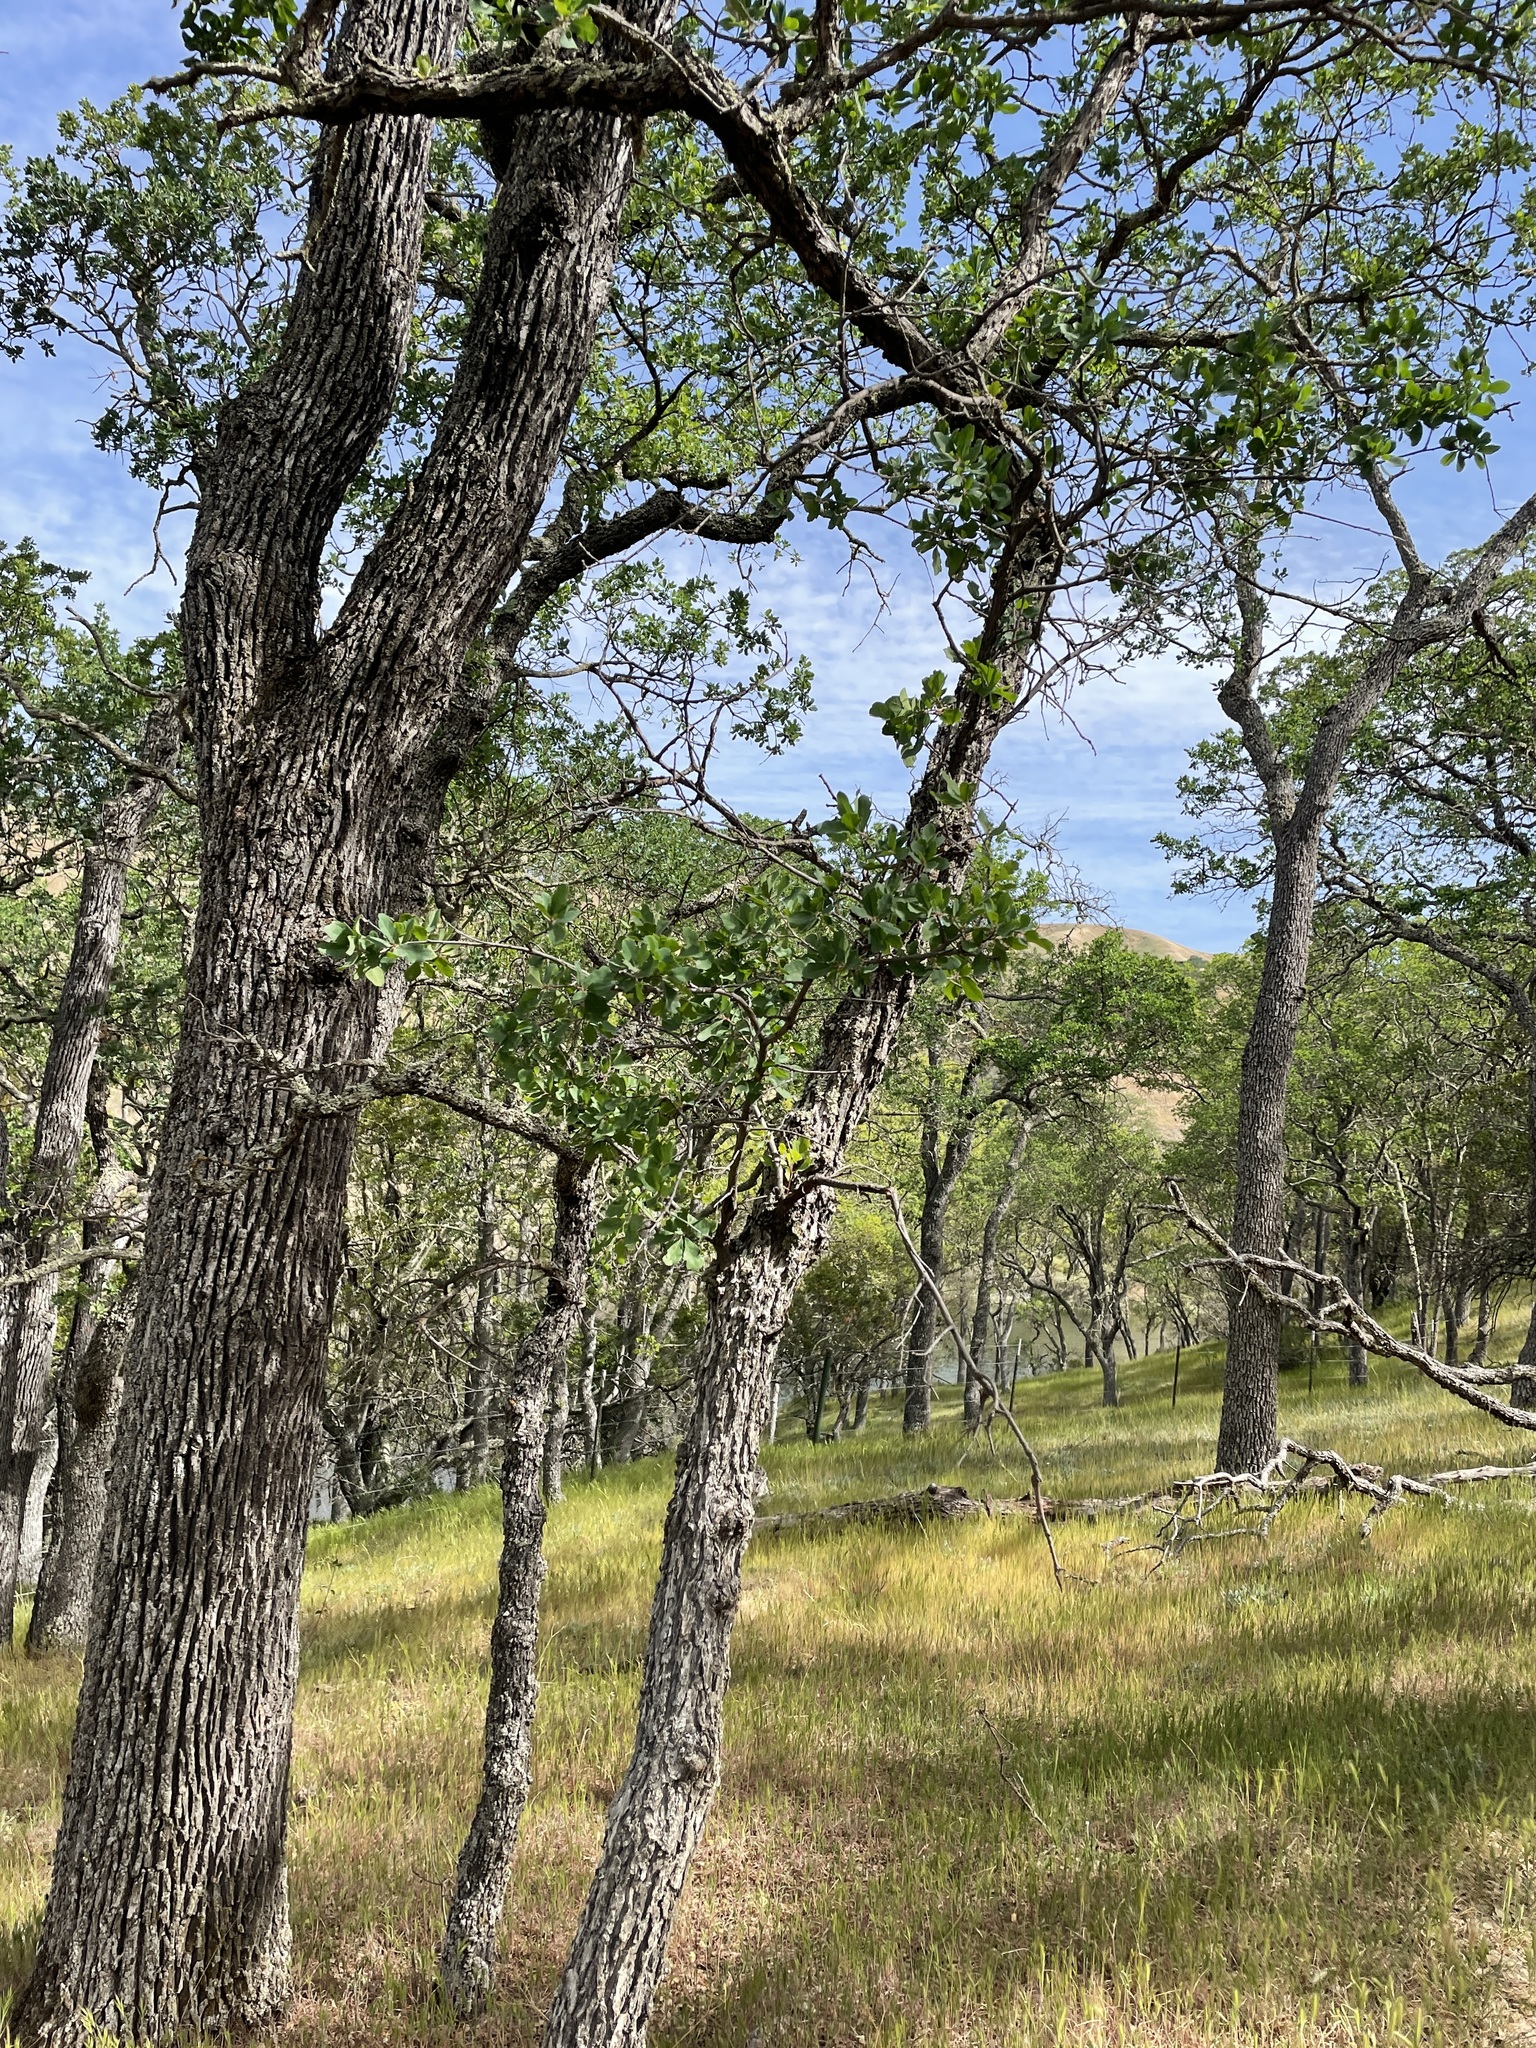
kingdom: Plantae
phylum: Tracheophyta
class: Magnoliopsida
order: Fagales
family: Fagaceae
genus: Quercus
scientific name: Quercus douglasii
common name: Blue oak
